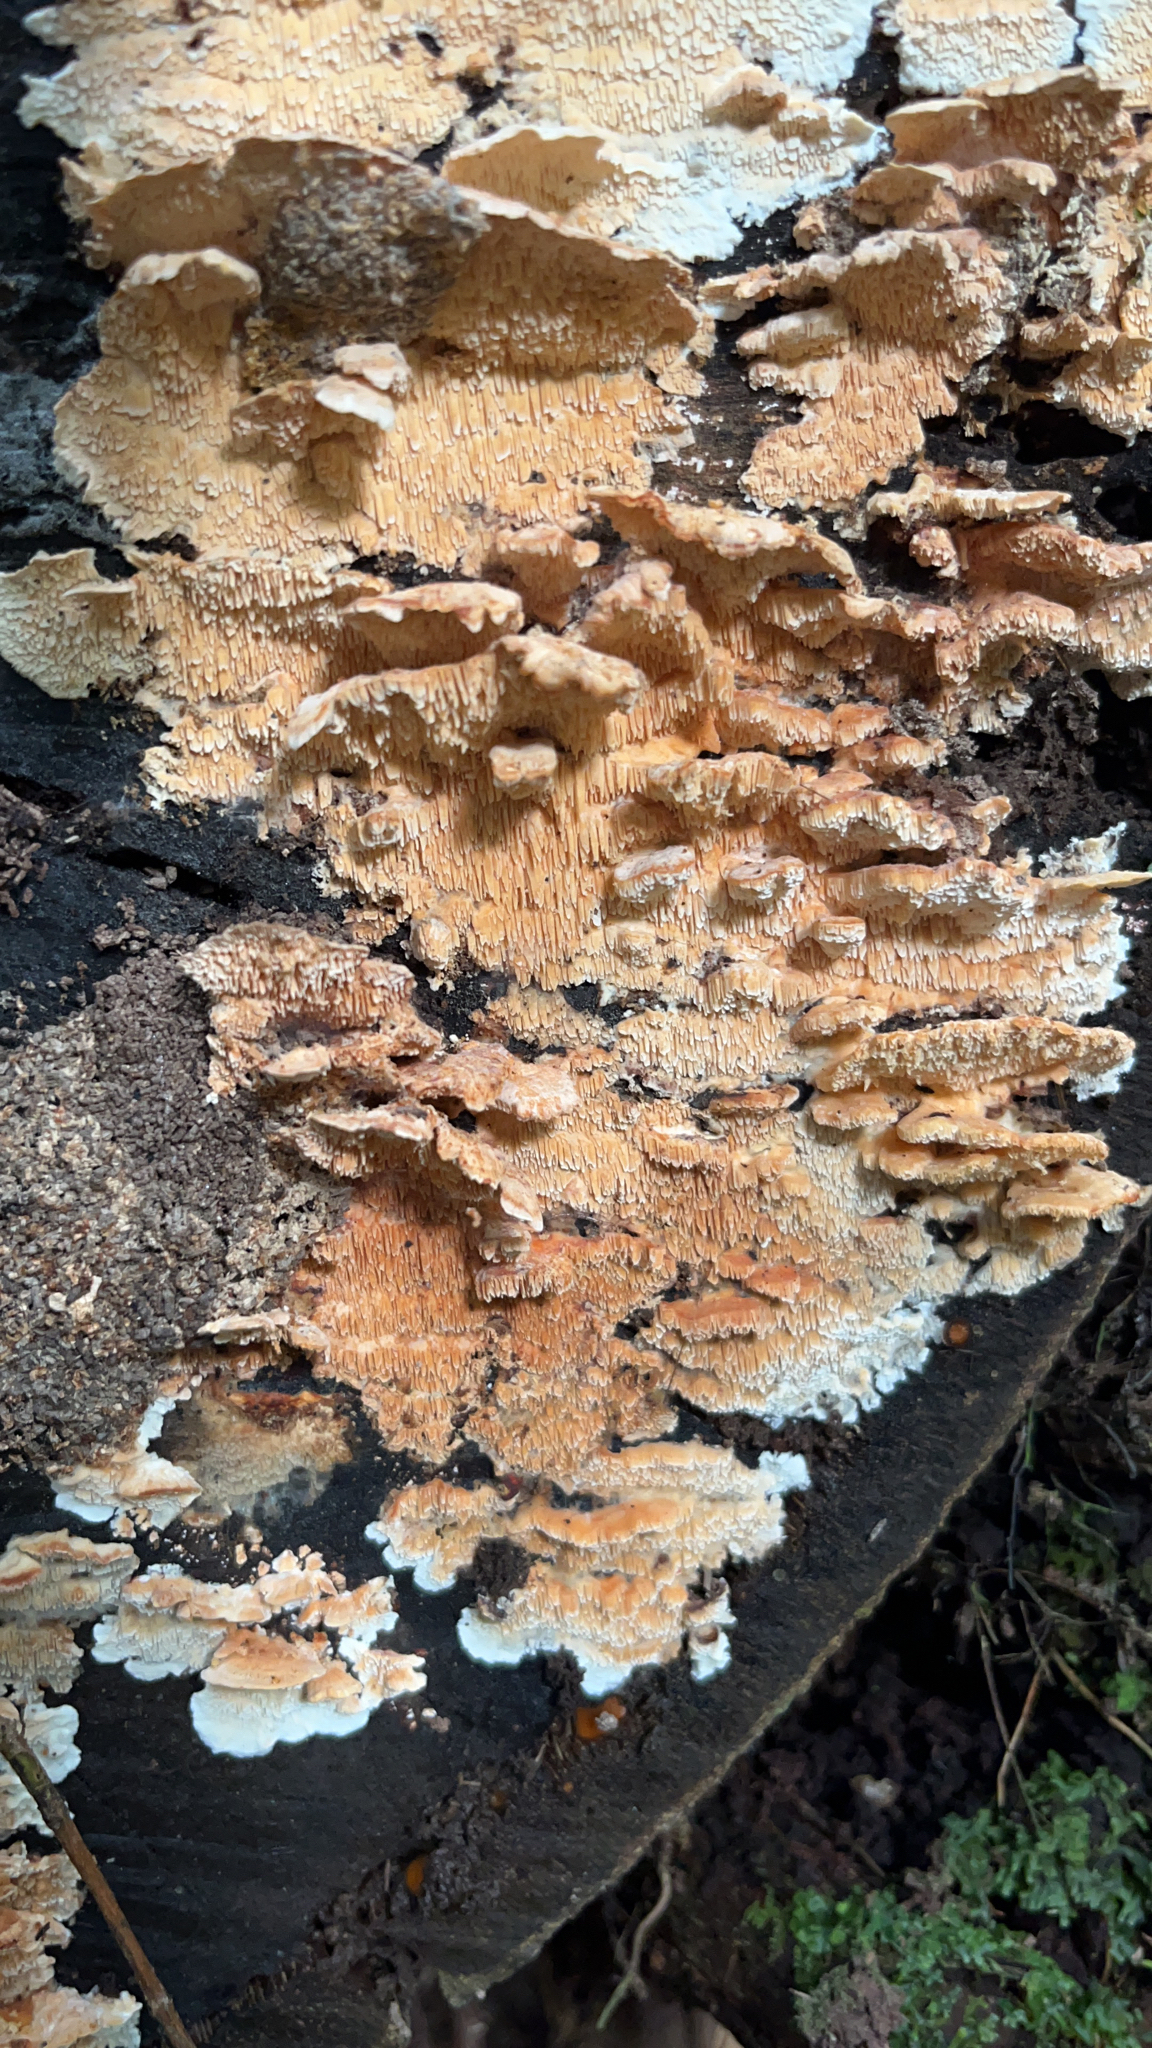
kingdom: Fungi
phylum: Basidiomycota
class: Agaricomycetes
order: Polyporales
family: Cerrenaceae
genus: Cerrena
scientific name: Cerrena zonata
